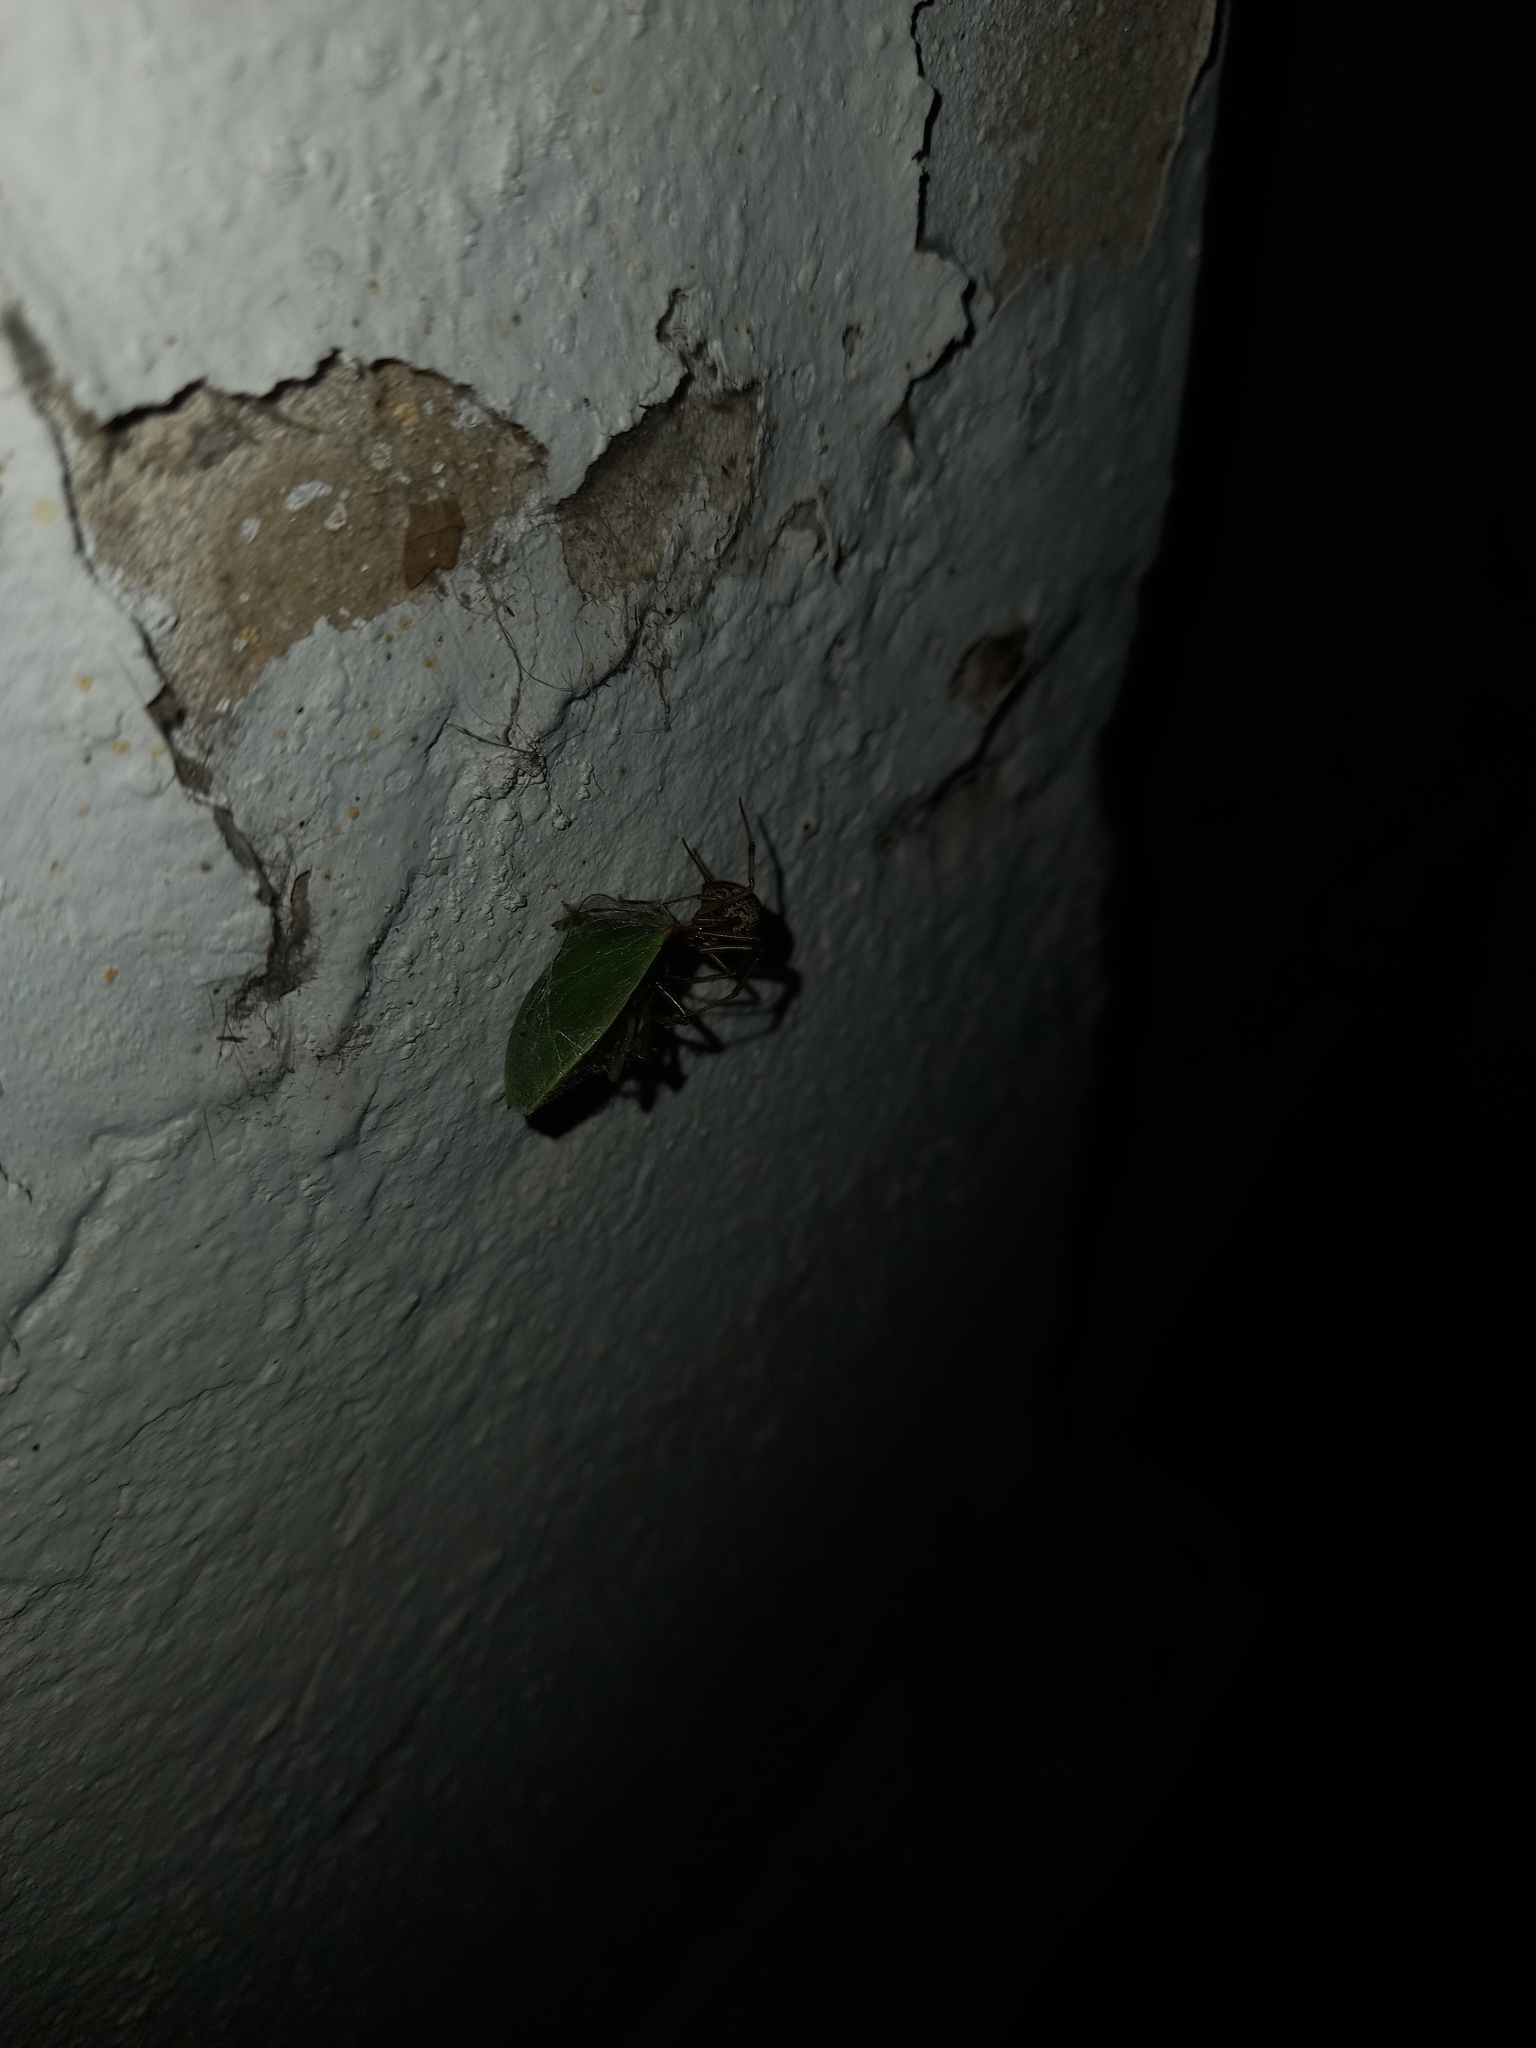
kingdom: Animalia
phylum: Arthropoda
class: Arachnida
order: Araneae
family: Theridiidae
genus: Parasteatoda
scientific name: Parasteatoda tepidariorum
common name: Common house spider
